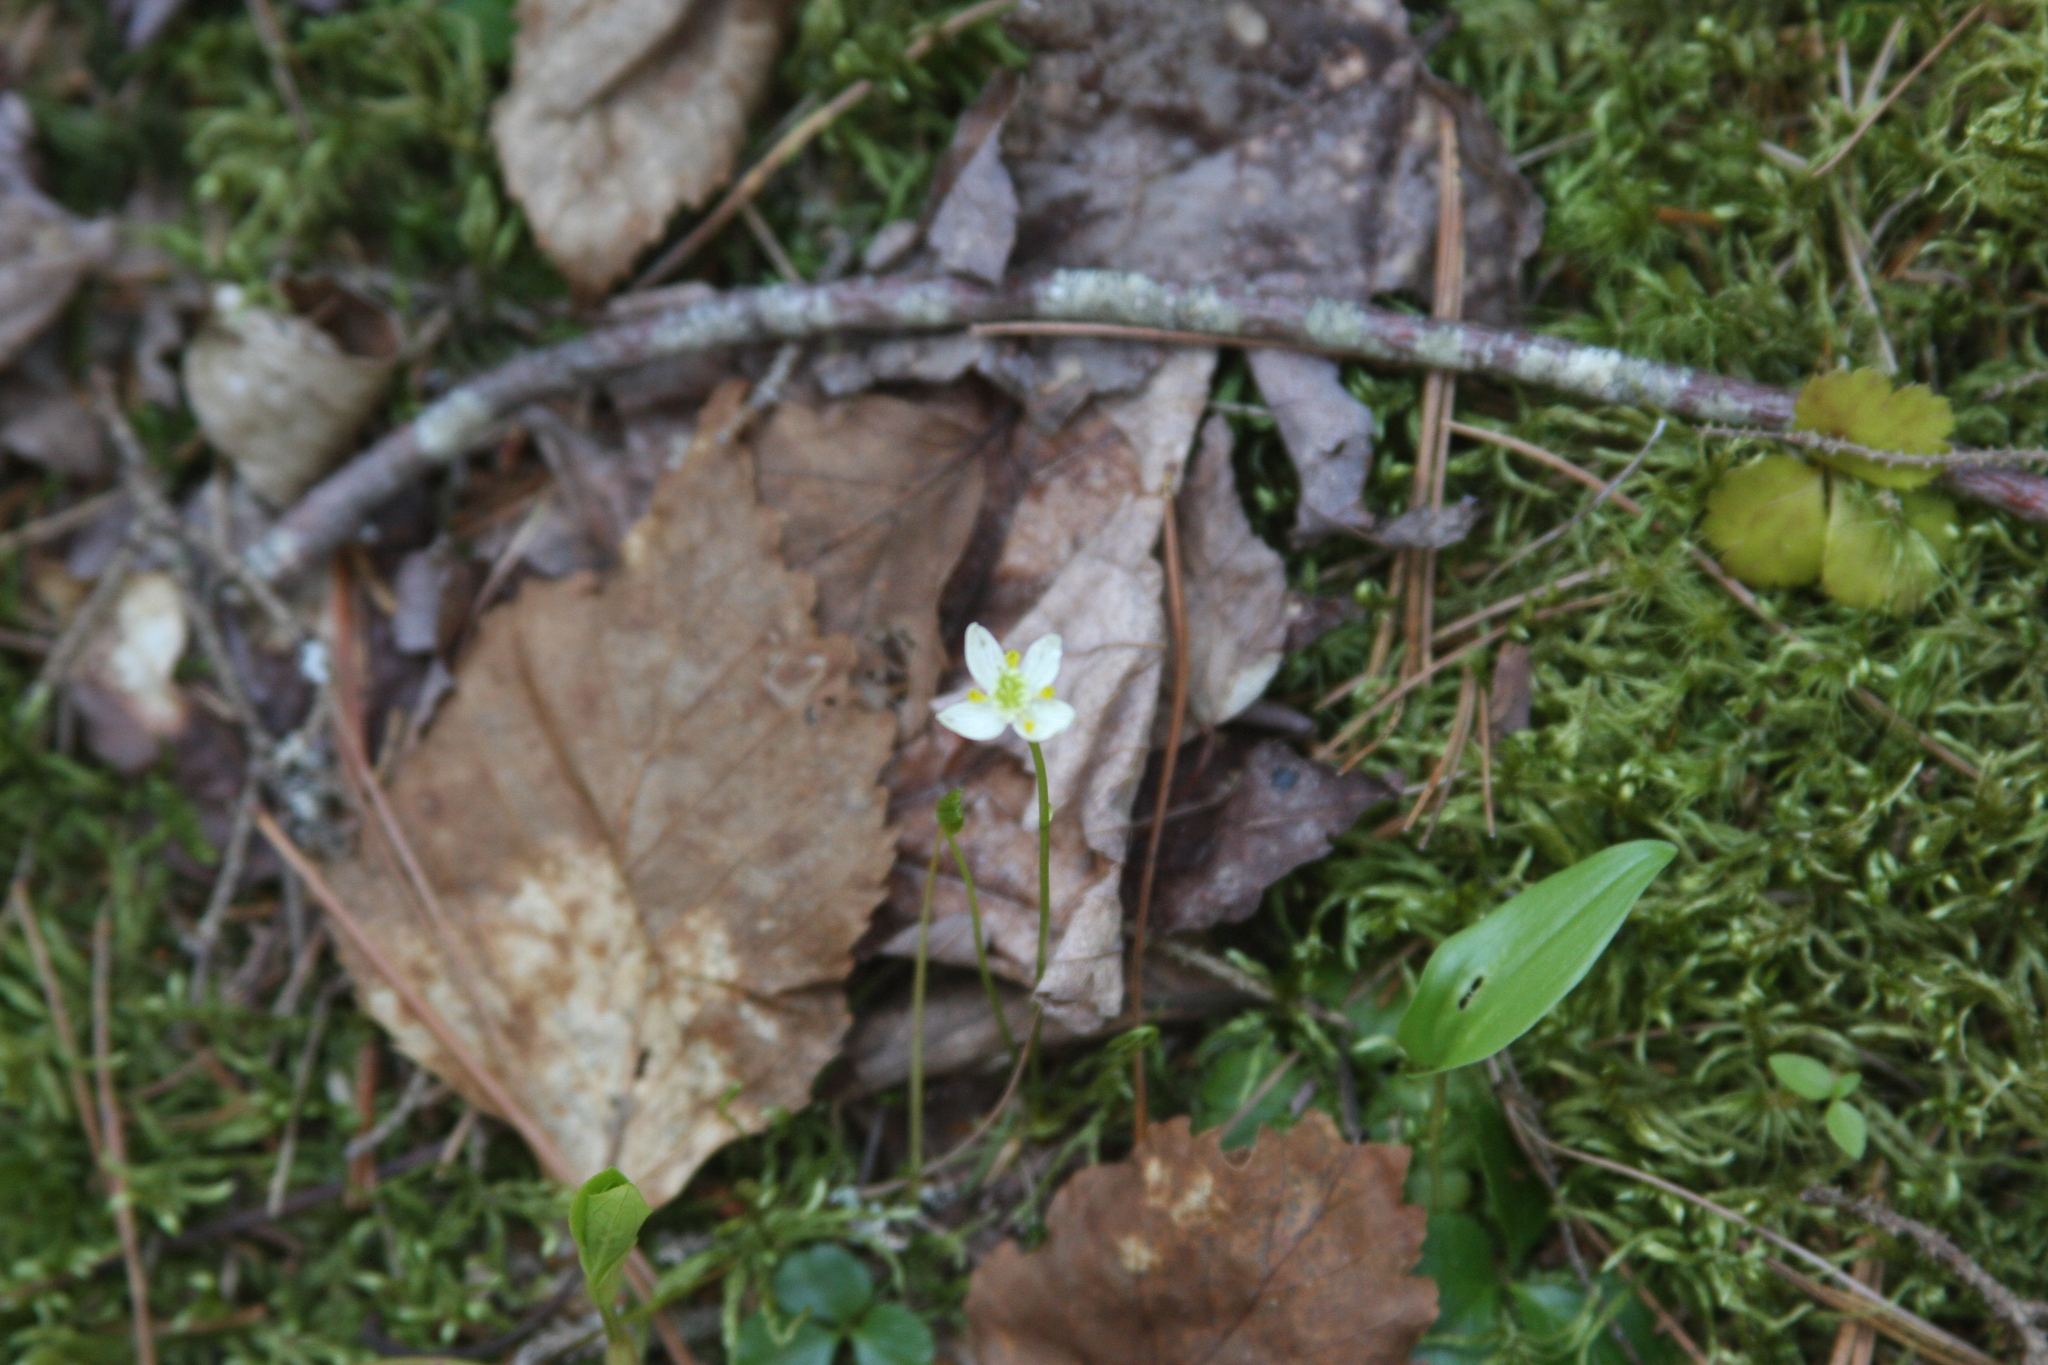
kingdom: Plantae
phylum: Tracheophyta
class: Magnoliopsida
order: Ranunculales
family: Ranunculaceae
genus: Coptis
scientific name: Coptis trifolia
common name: Canker-root
